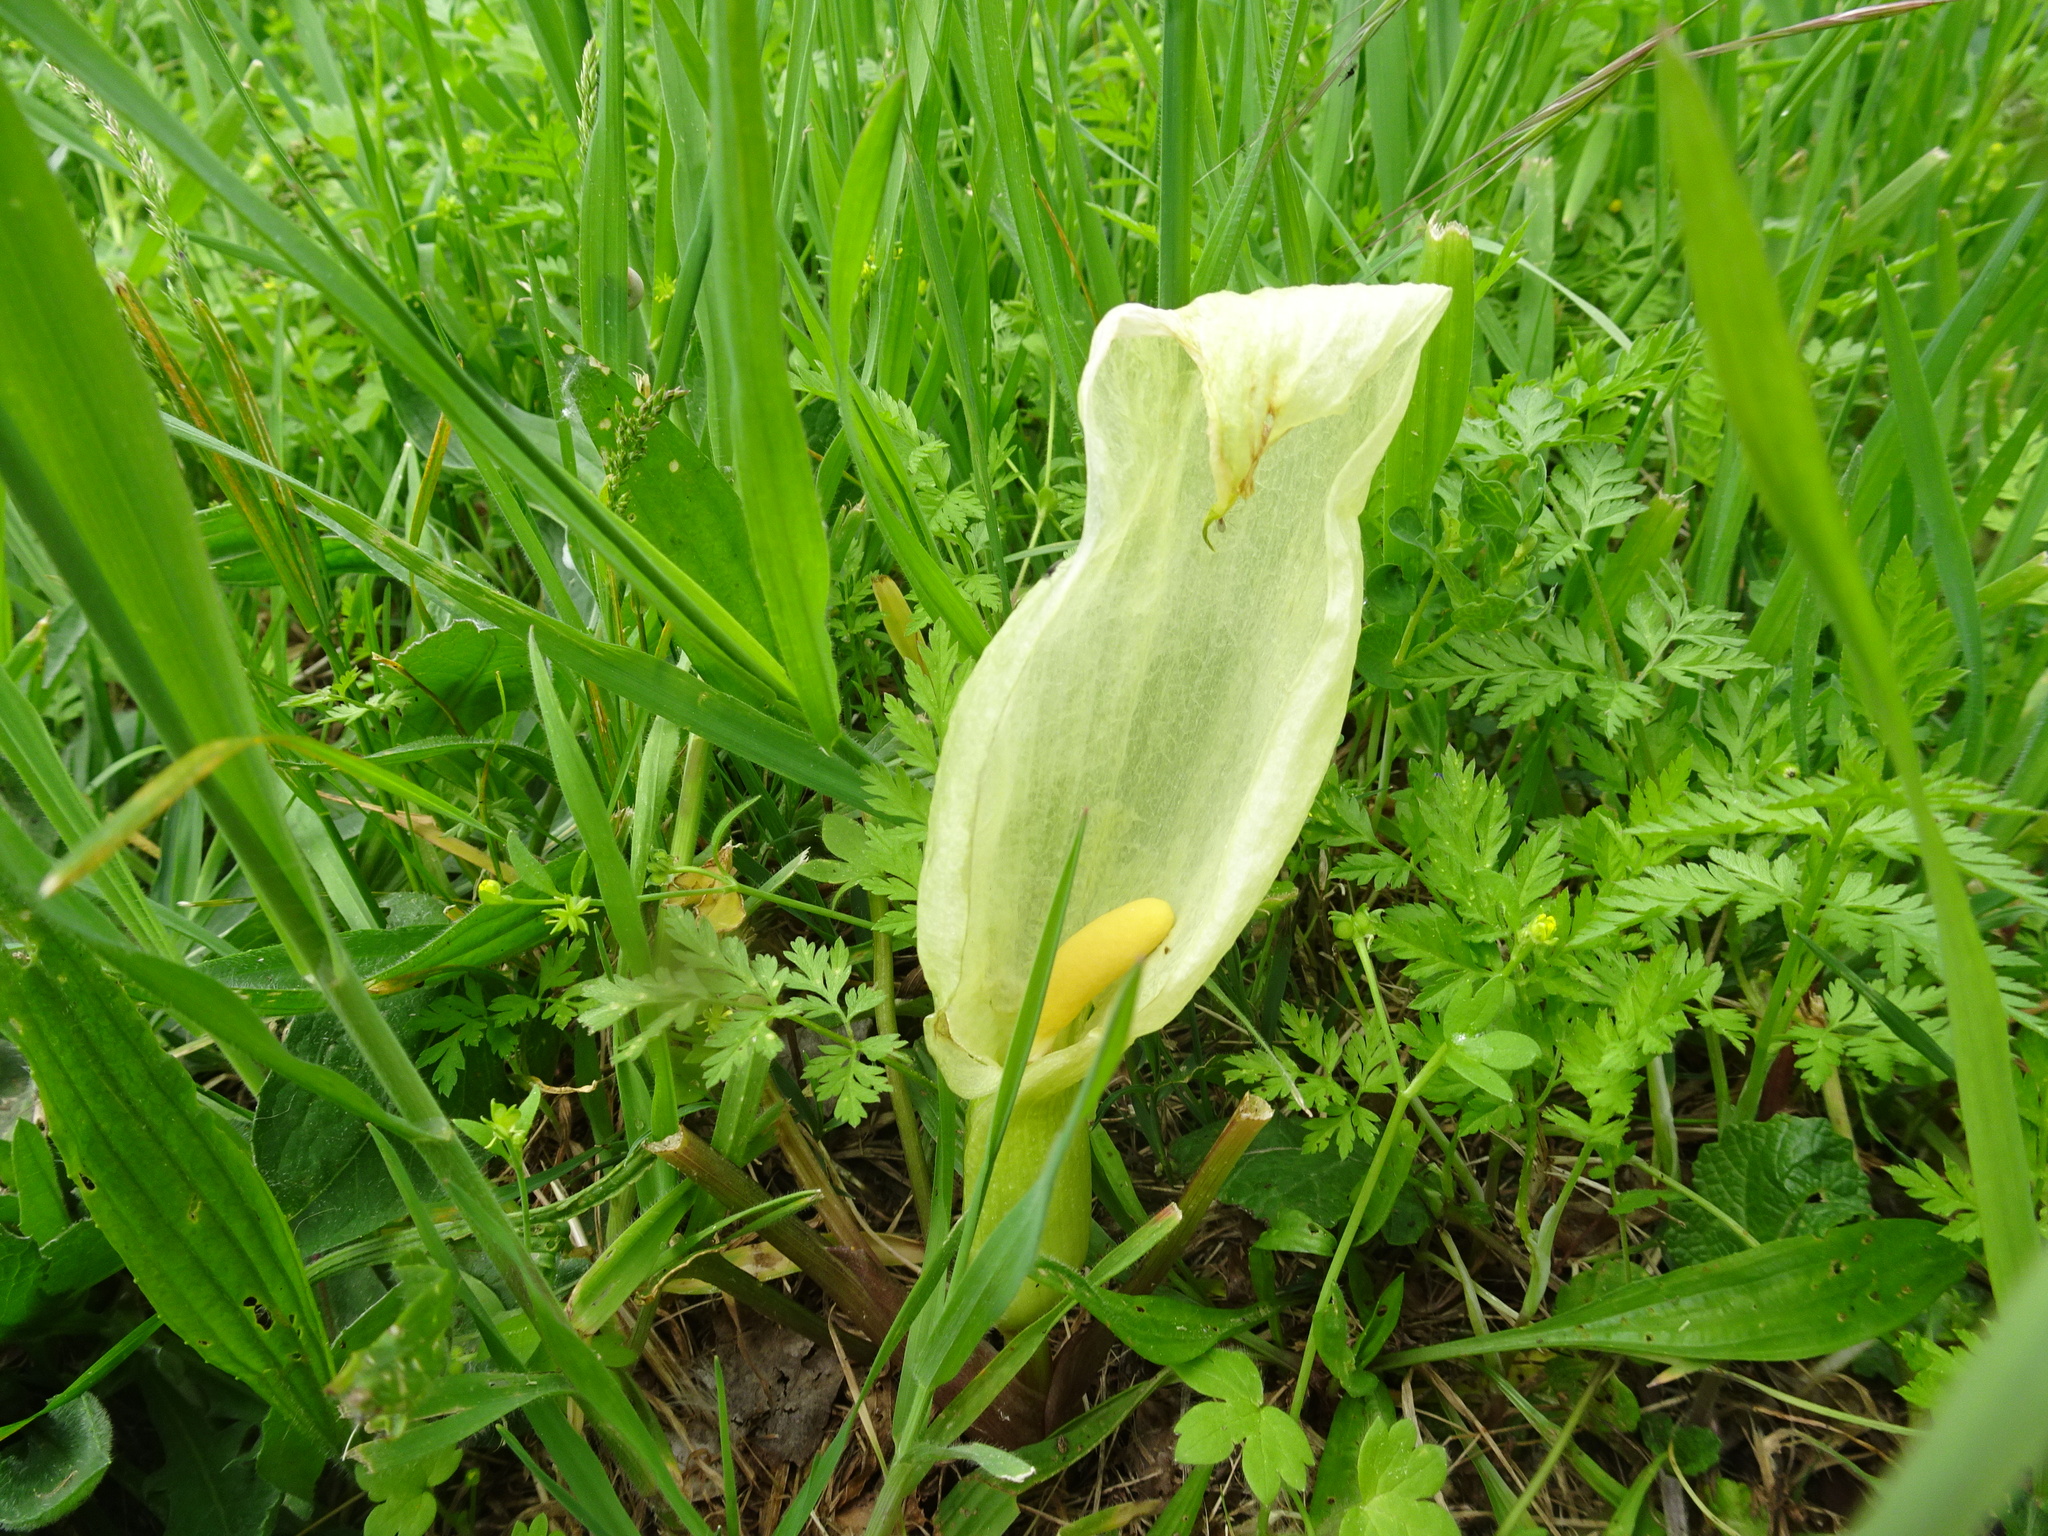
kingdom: Plantae
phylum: Tracheophyta
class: Liliopsida
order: Alismatales
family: Araceae
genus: Arum
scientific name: Arum italicum
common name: Italian lords-and-ladies
